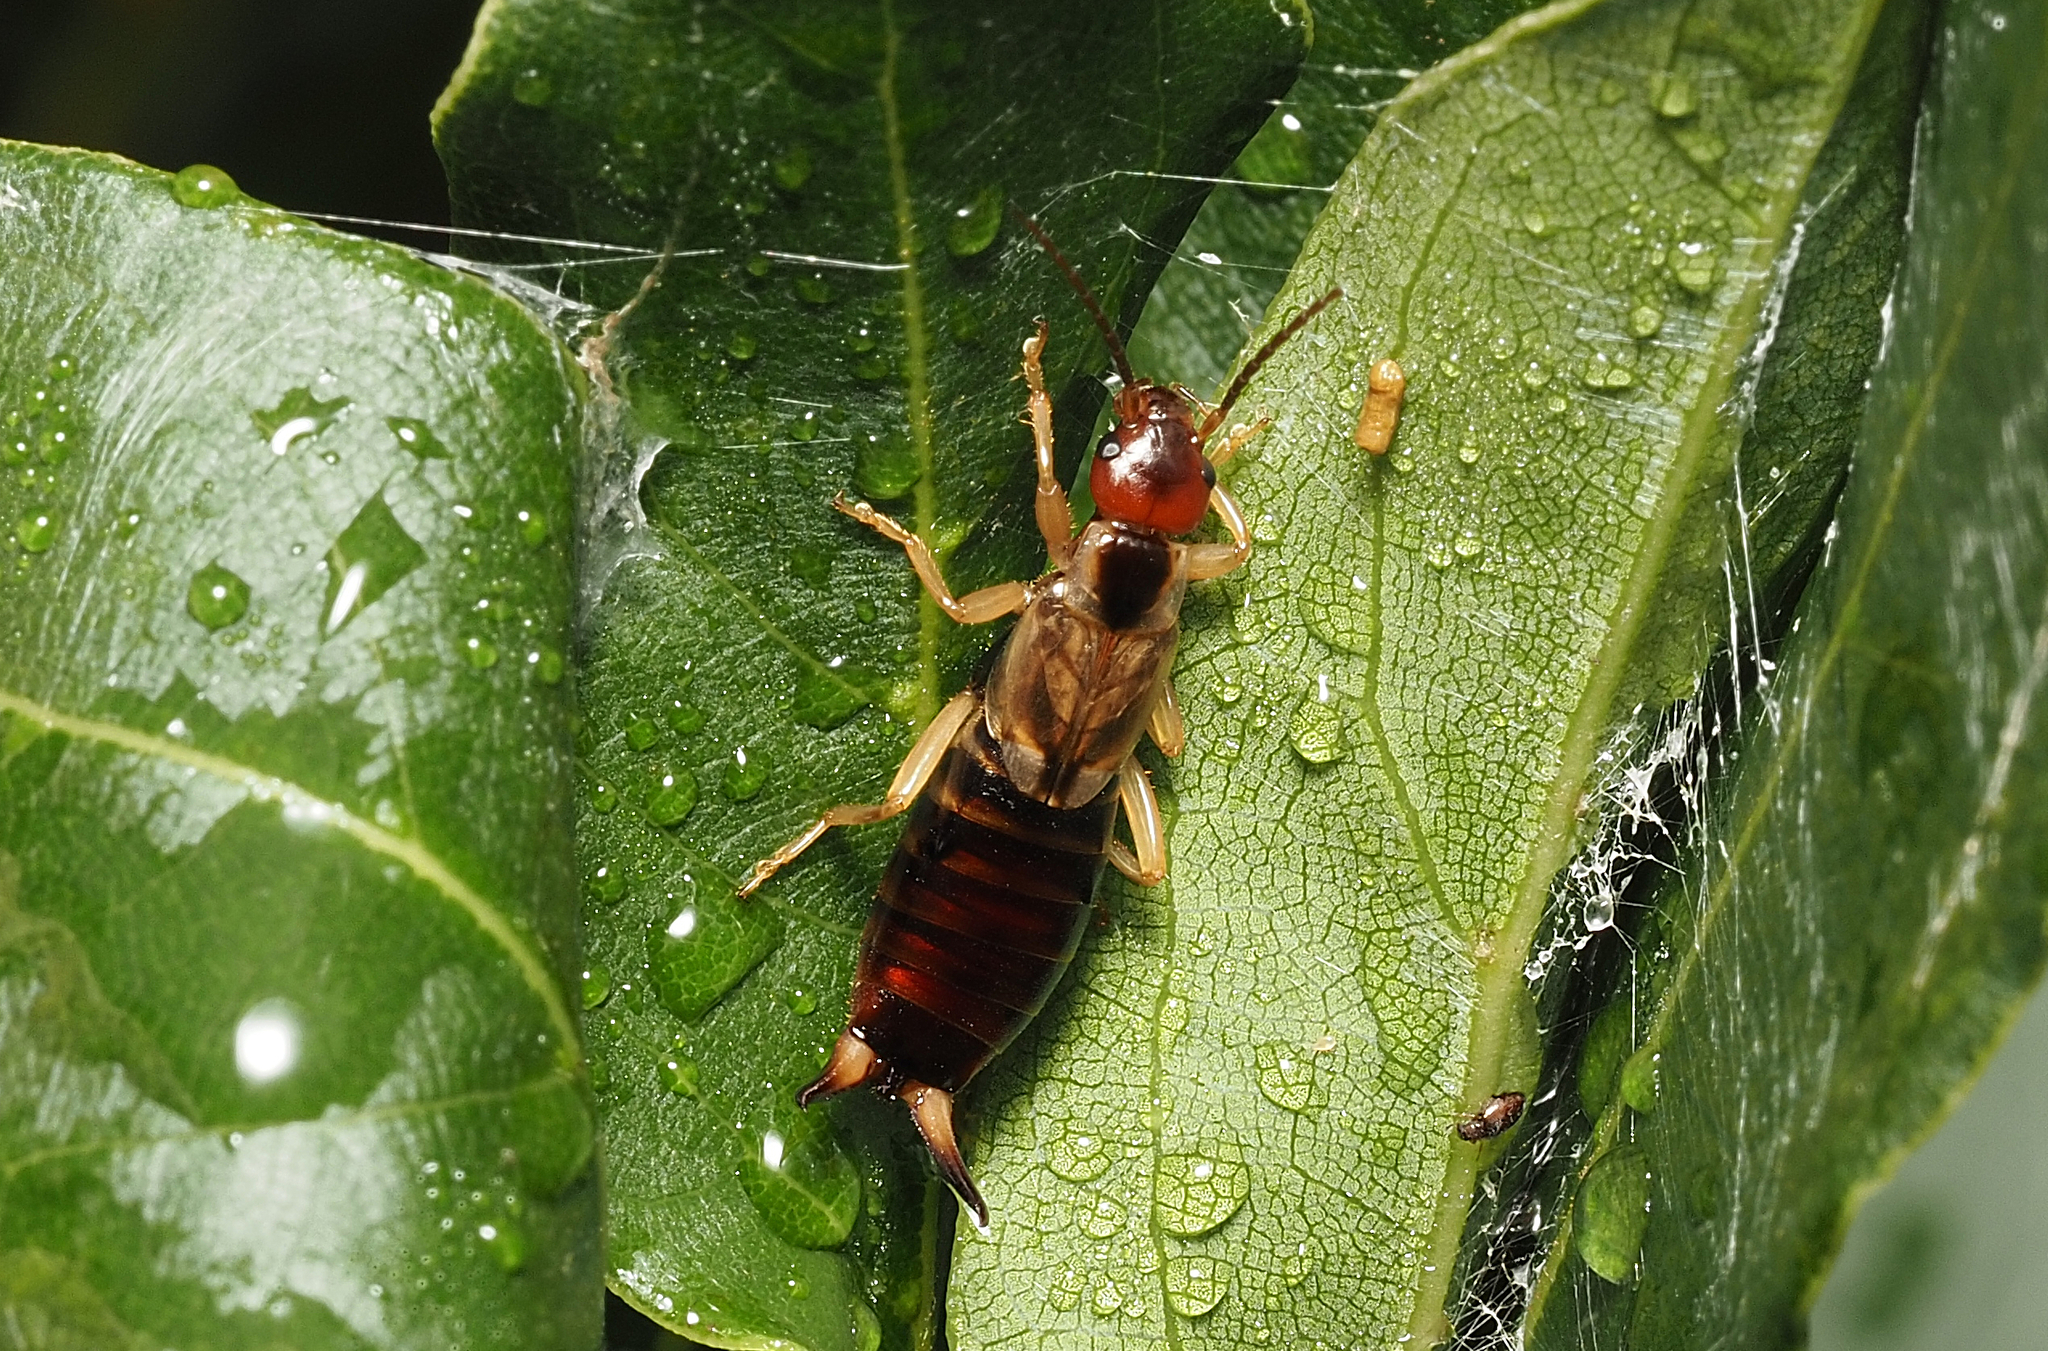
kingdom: Animalia
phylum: Arthropoda
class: Insecta
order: Dermaptera
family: Forficulidae
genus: Forficula
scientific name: Forficula dentata
